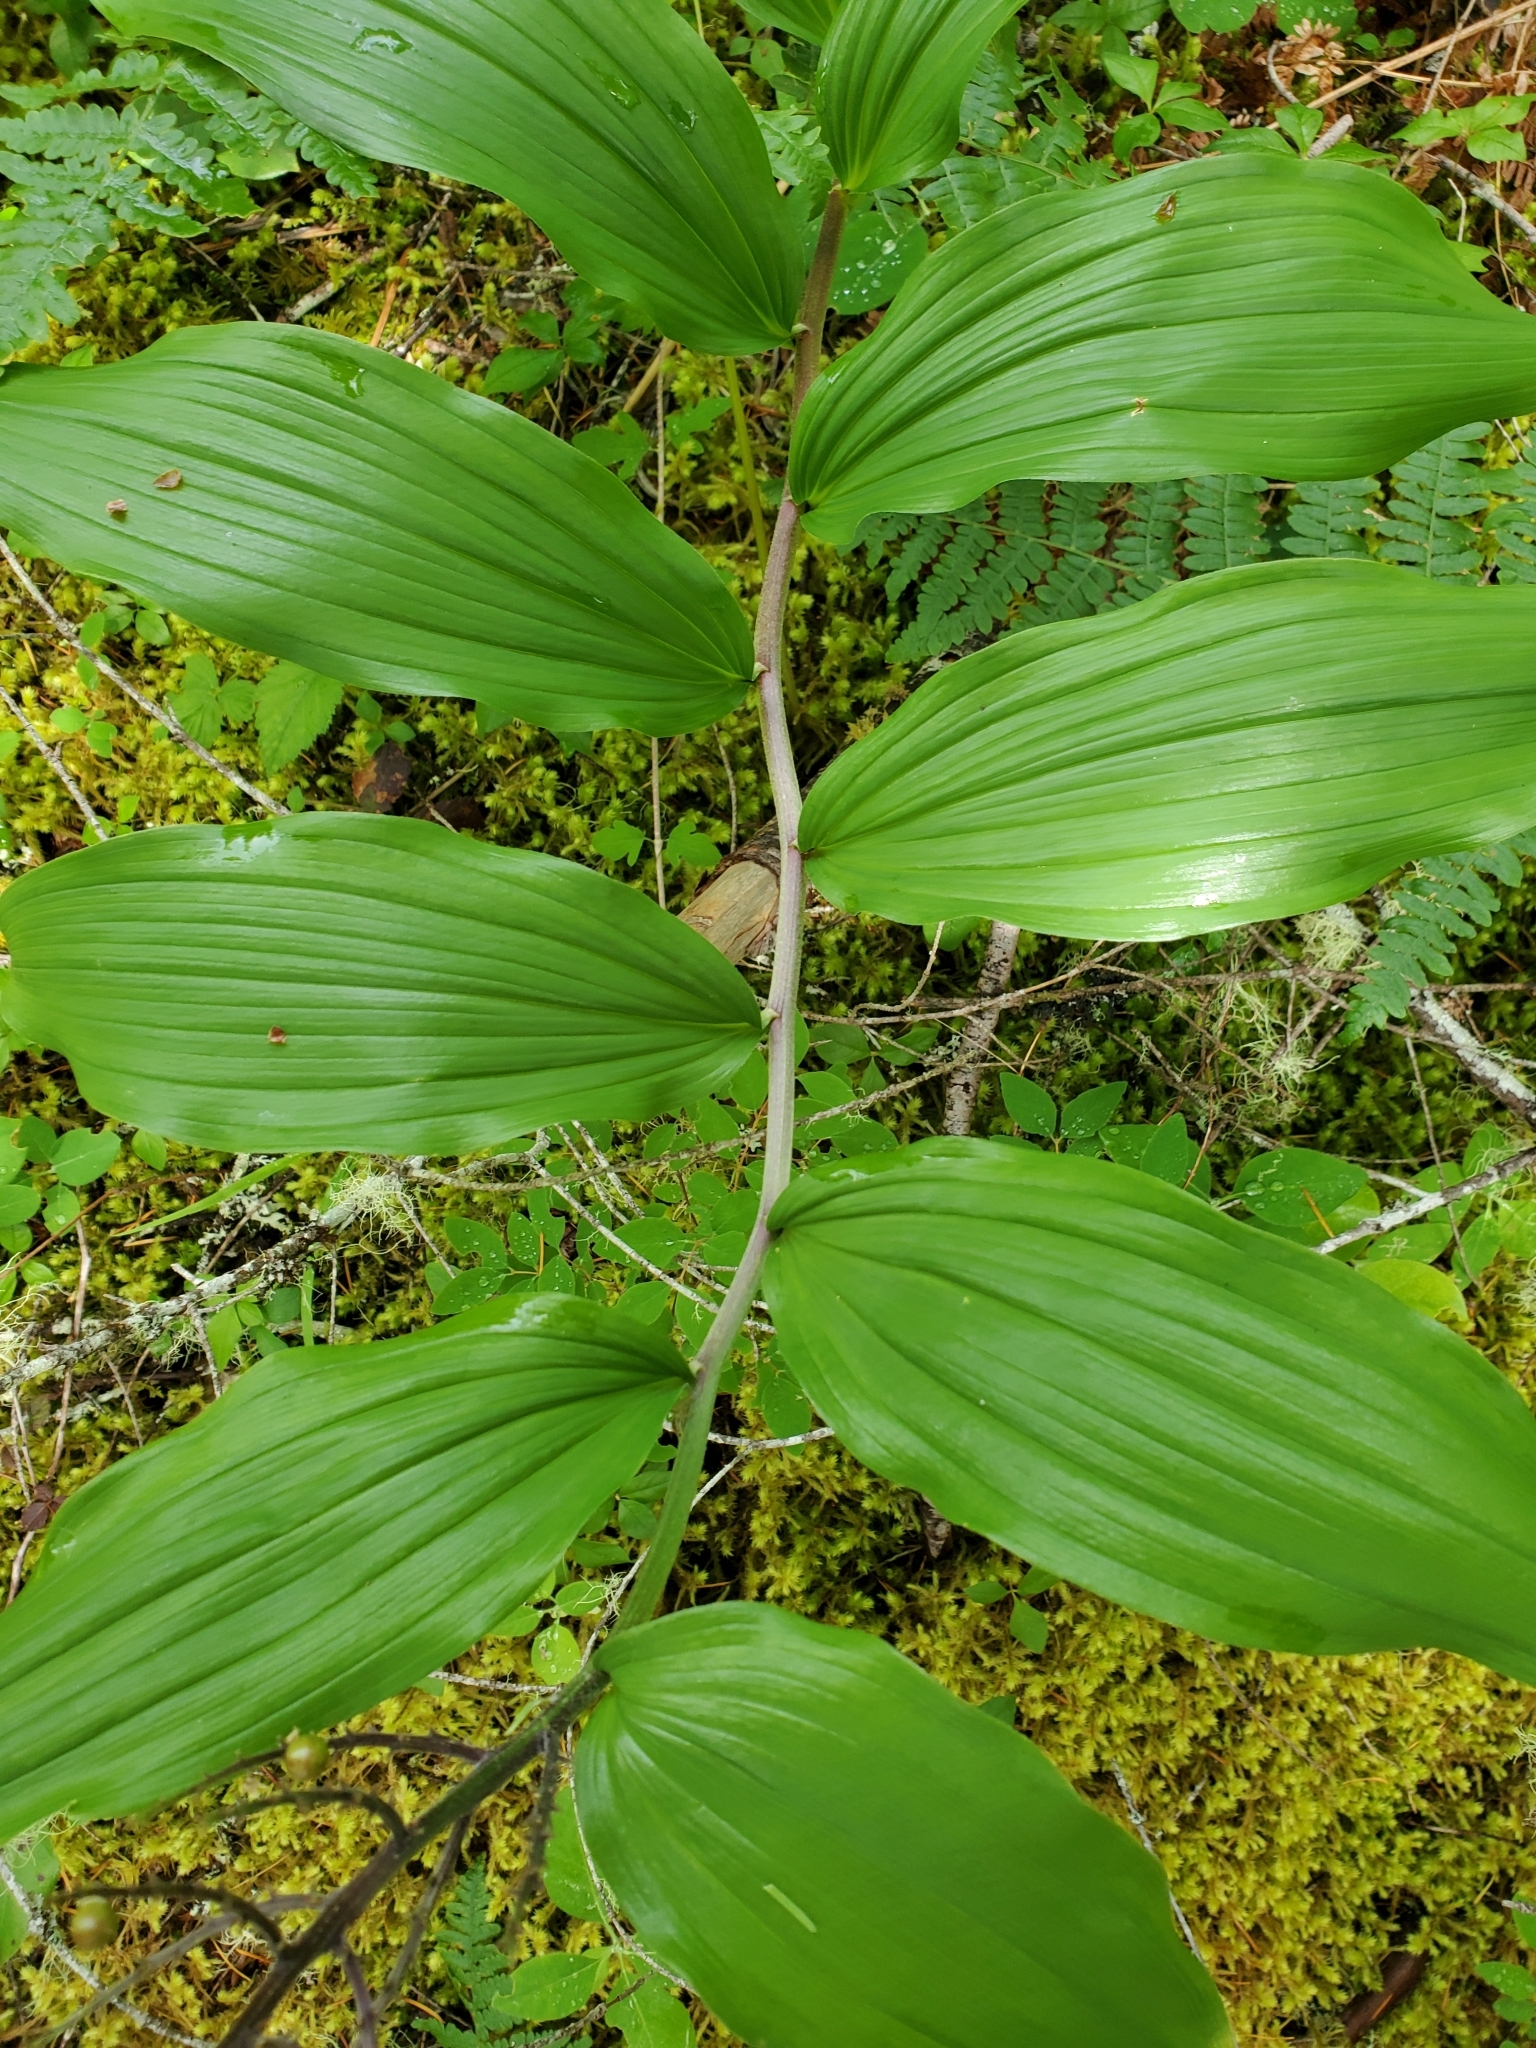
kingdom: Plantae
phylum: Tracheophyta
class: Liliopsida
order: Asparagales
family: Asparagaceae
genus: Maianthemum
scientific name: Maianthemum racemosum
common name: False spikenard
